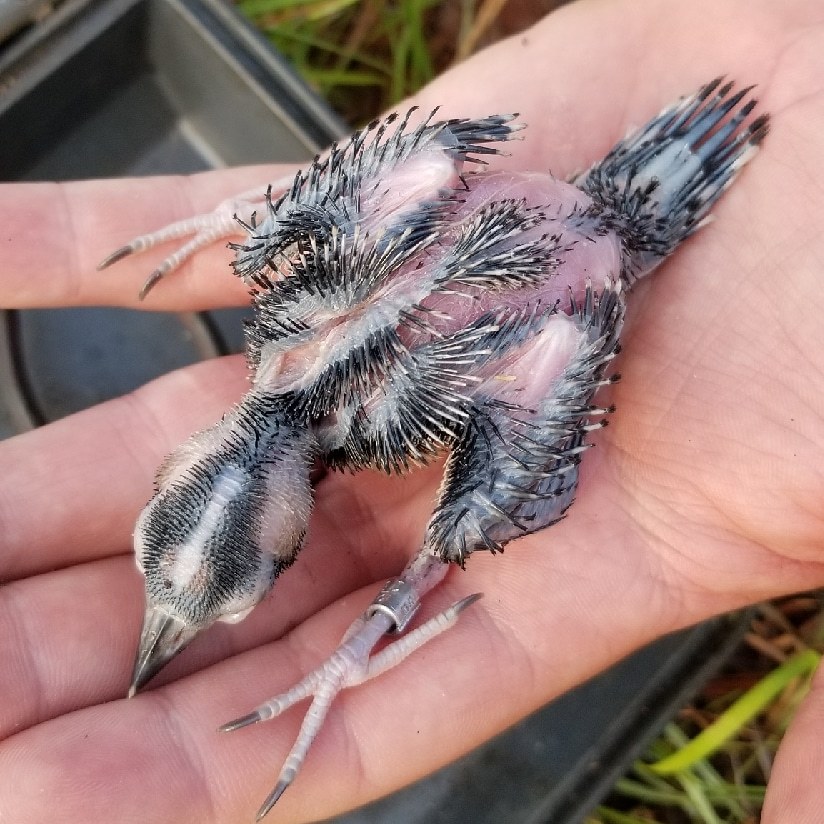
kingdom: Animalia
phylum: Chordata
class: Aves
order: Piciformes
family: Picidae
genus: Leuconotopicus
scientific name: Leuconotopicus borealis
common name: Red-cockaded woodpecker
